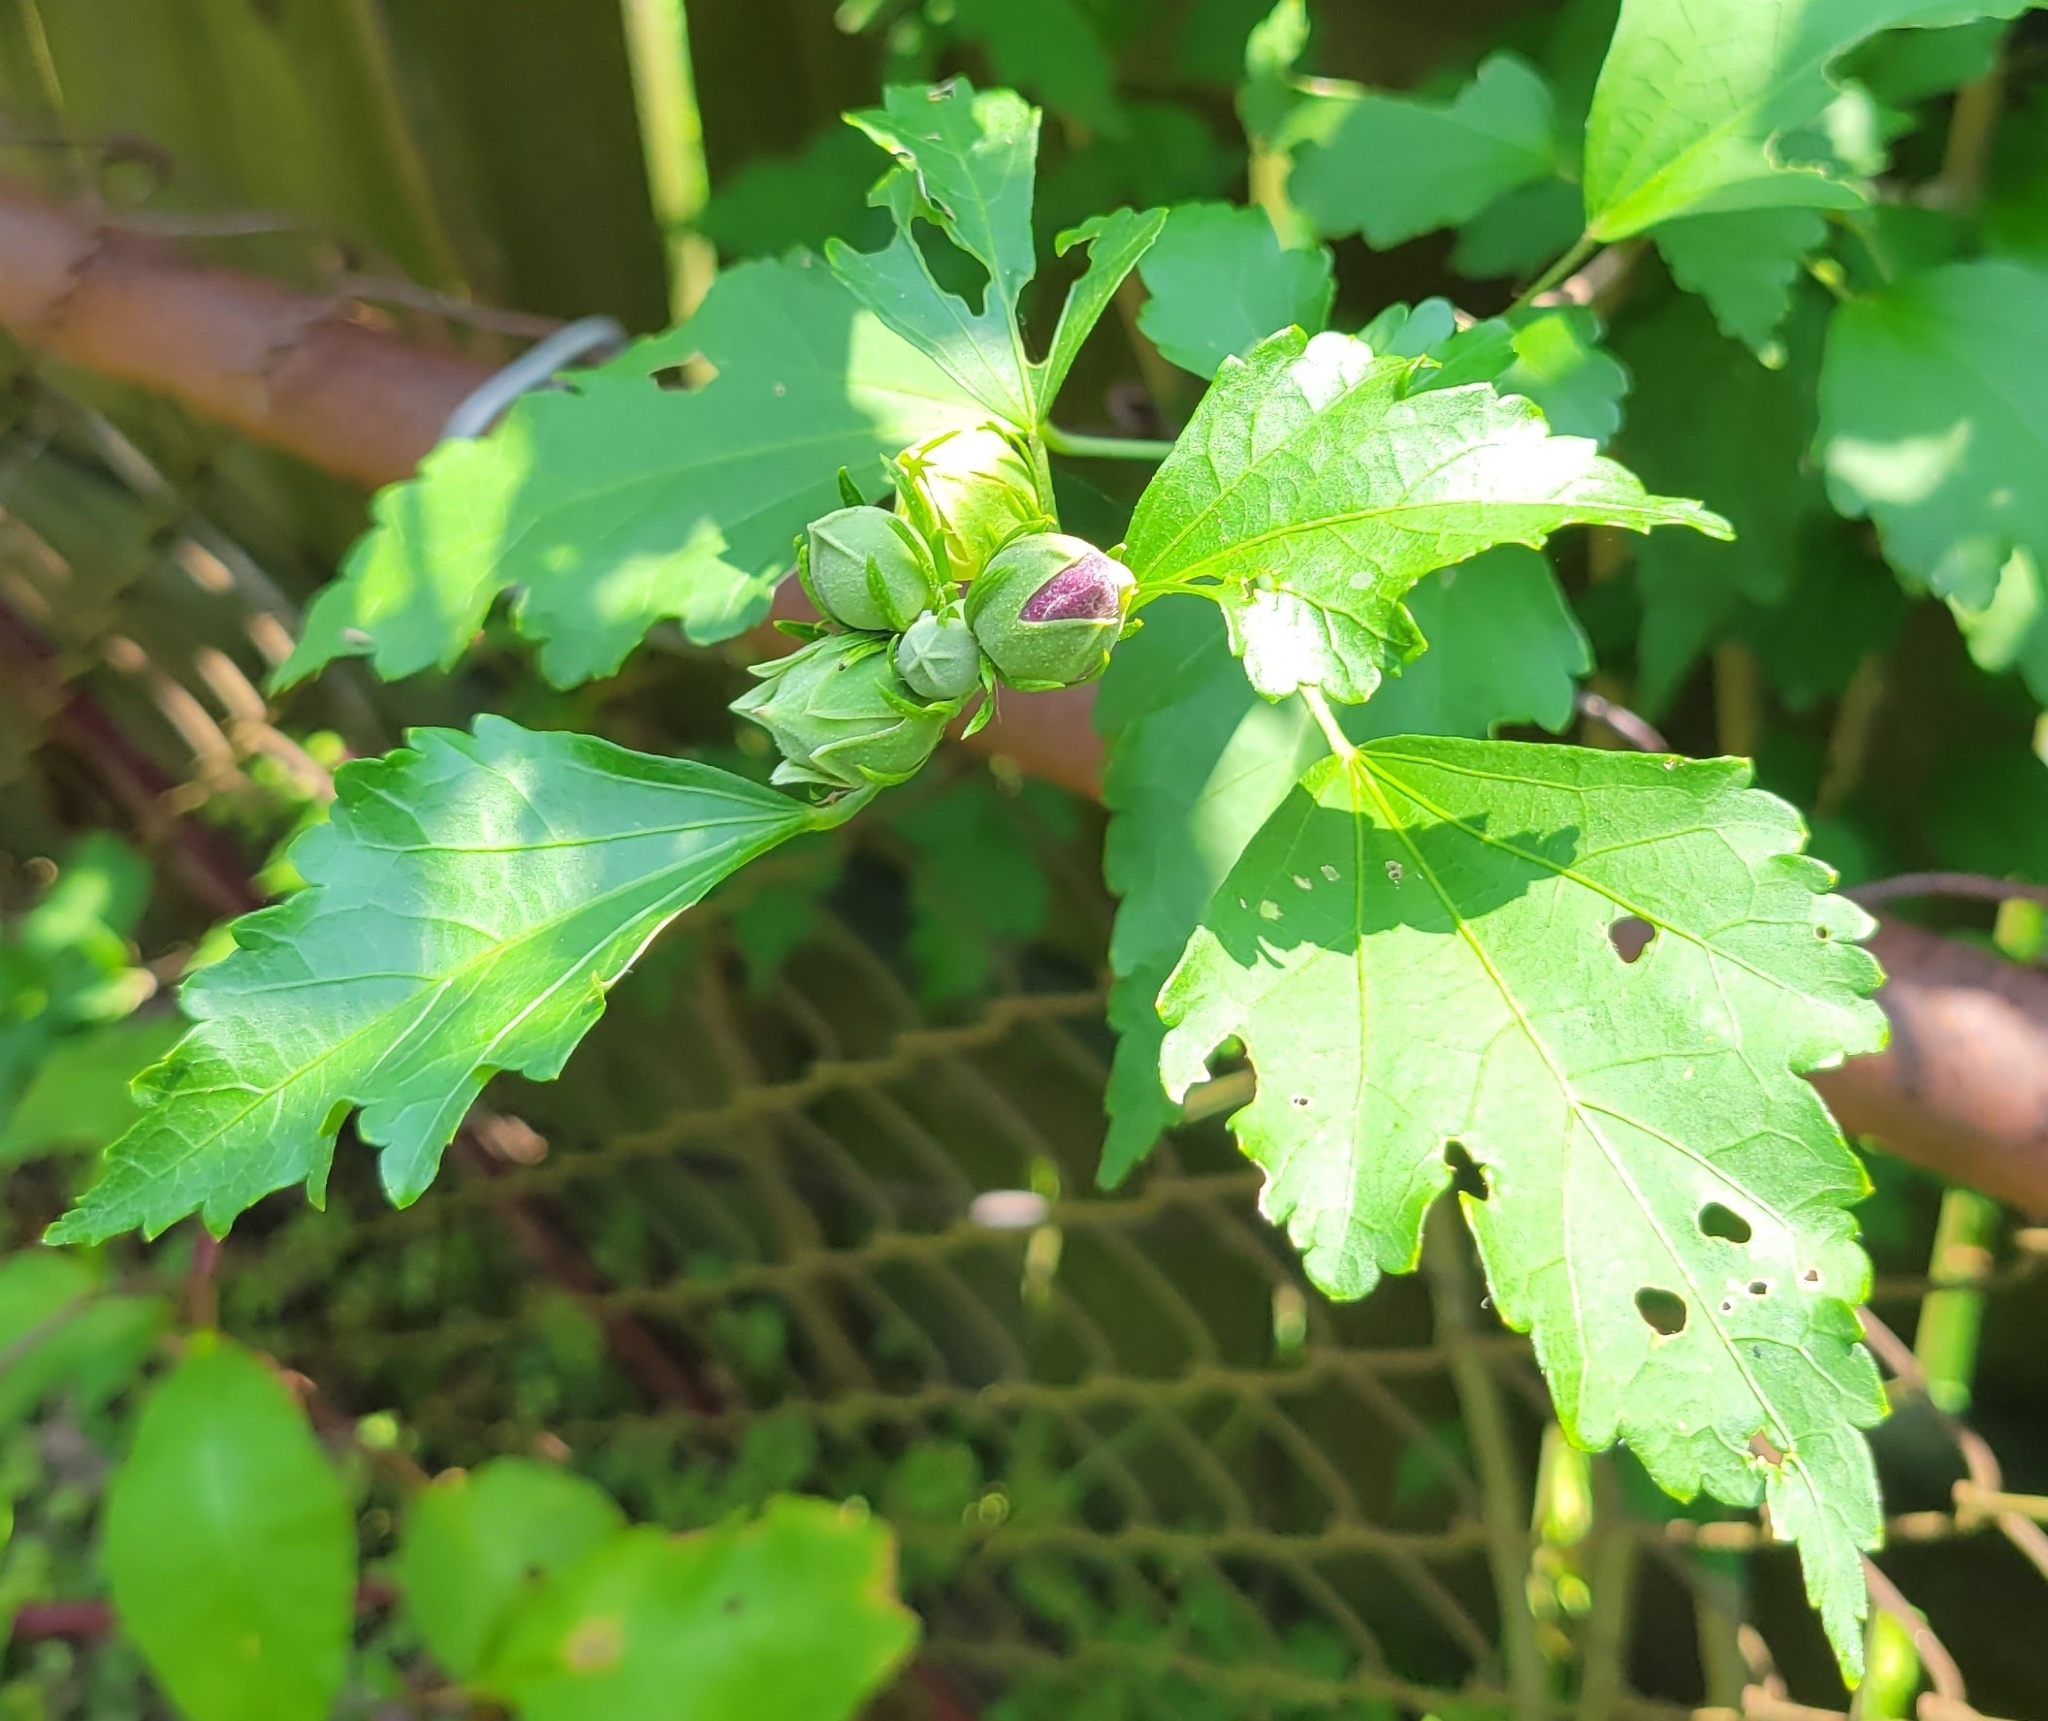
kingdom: Plantae
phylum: Tracheophyta
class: Magnoliopsida
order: Malvales
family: Malvaceae
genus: Hibiscus
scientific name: Hibiscus syriacus
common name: Syrian ketmia
